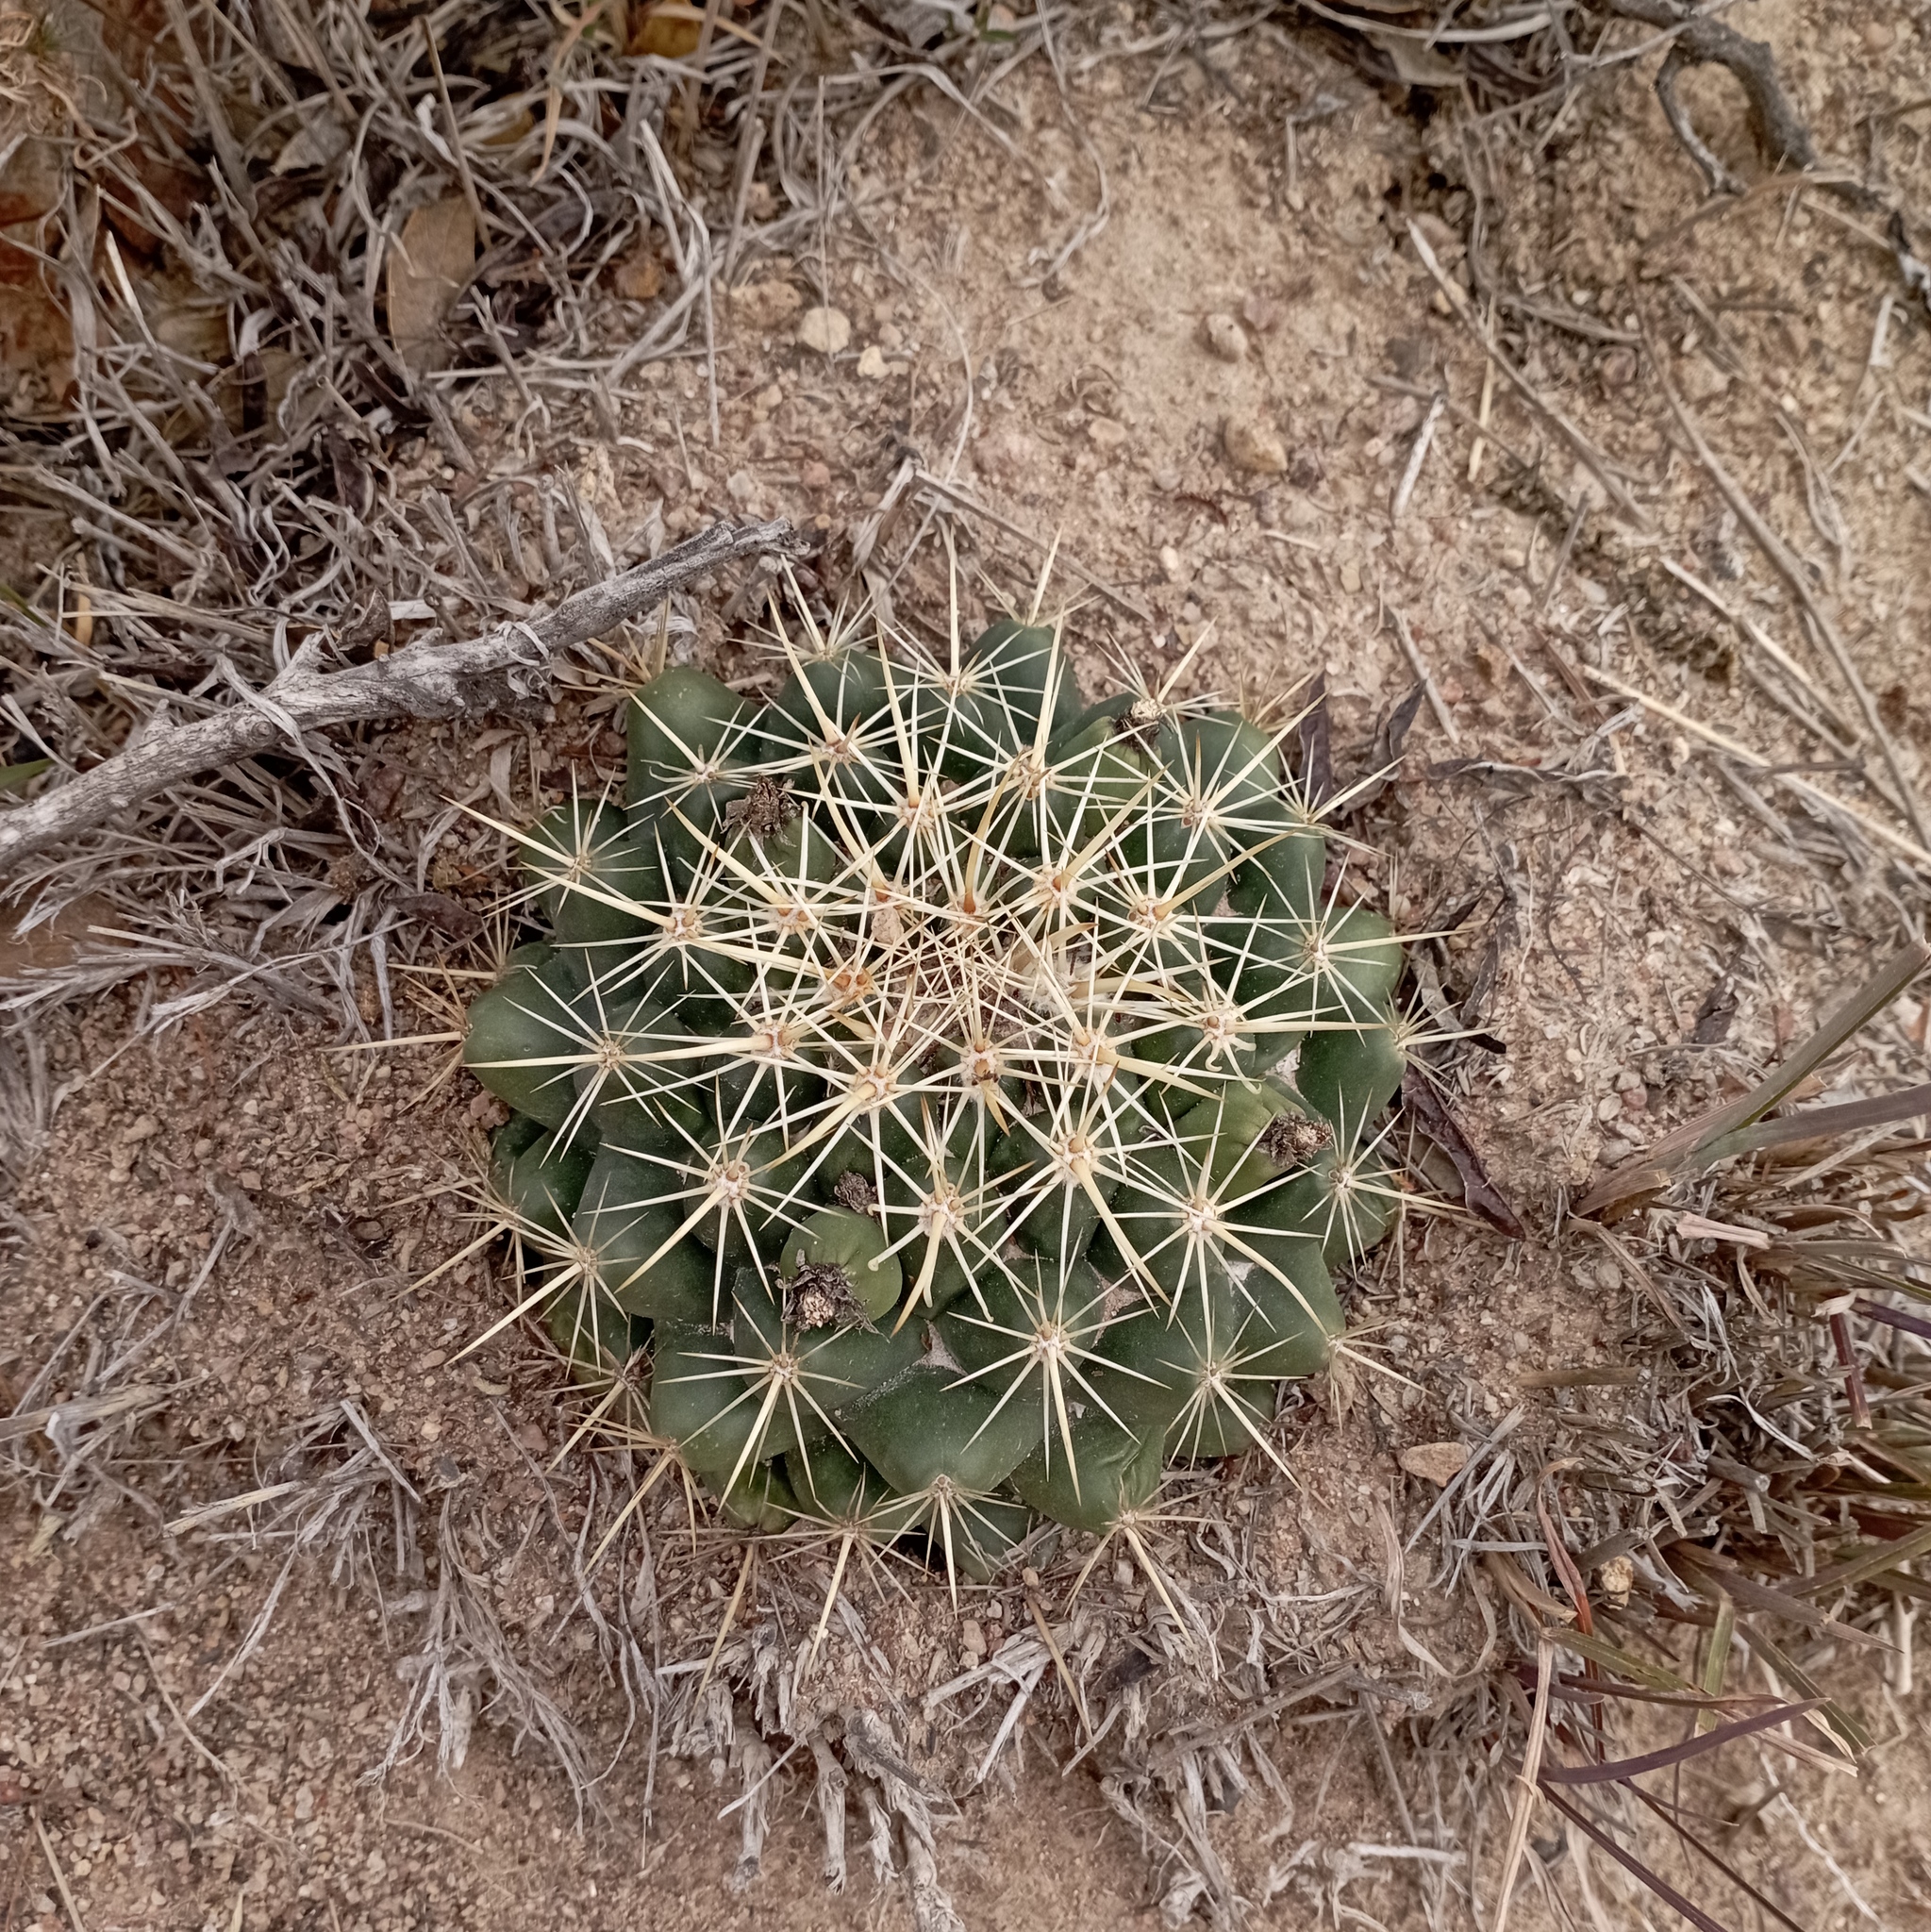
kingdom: Plantae
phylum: Tracheophyta
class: Magnoliopsida
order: Caryophyllales
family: Cactaceae
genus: Coryphantha
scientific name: Coryphantha ottonis
